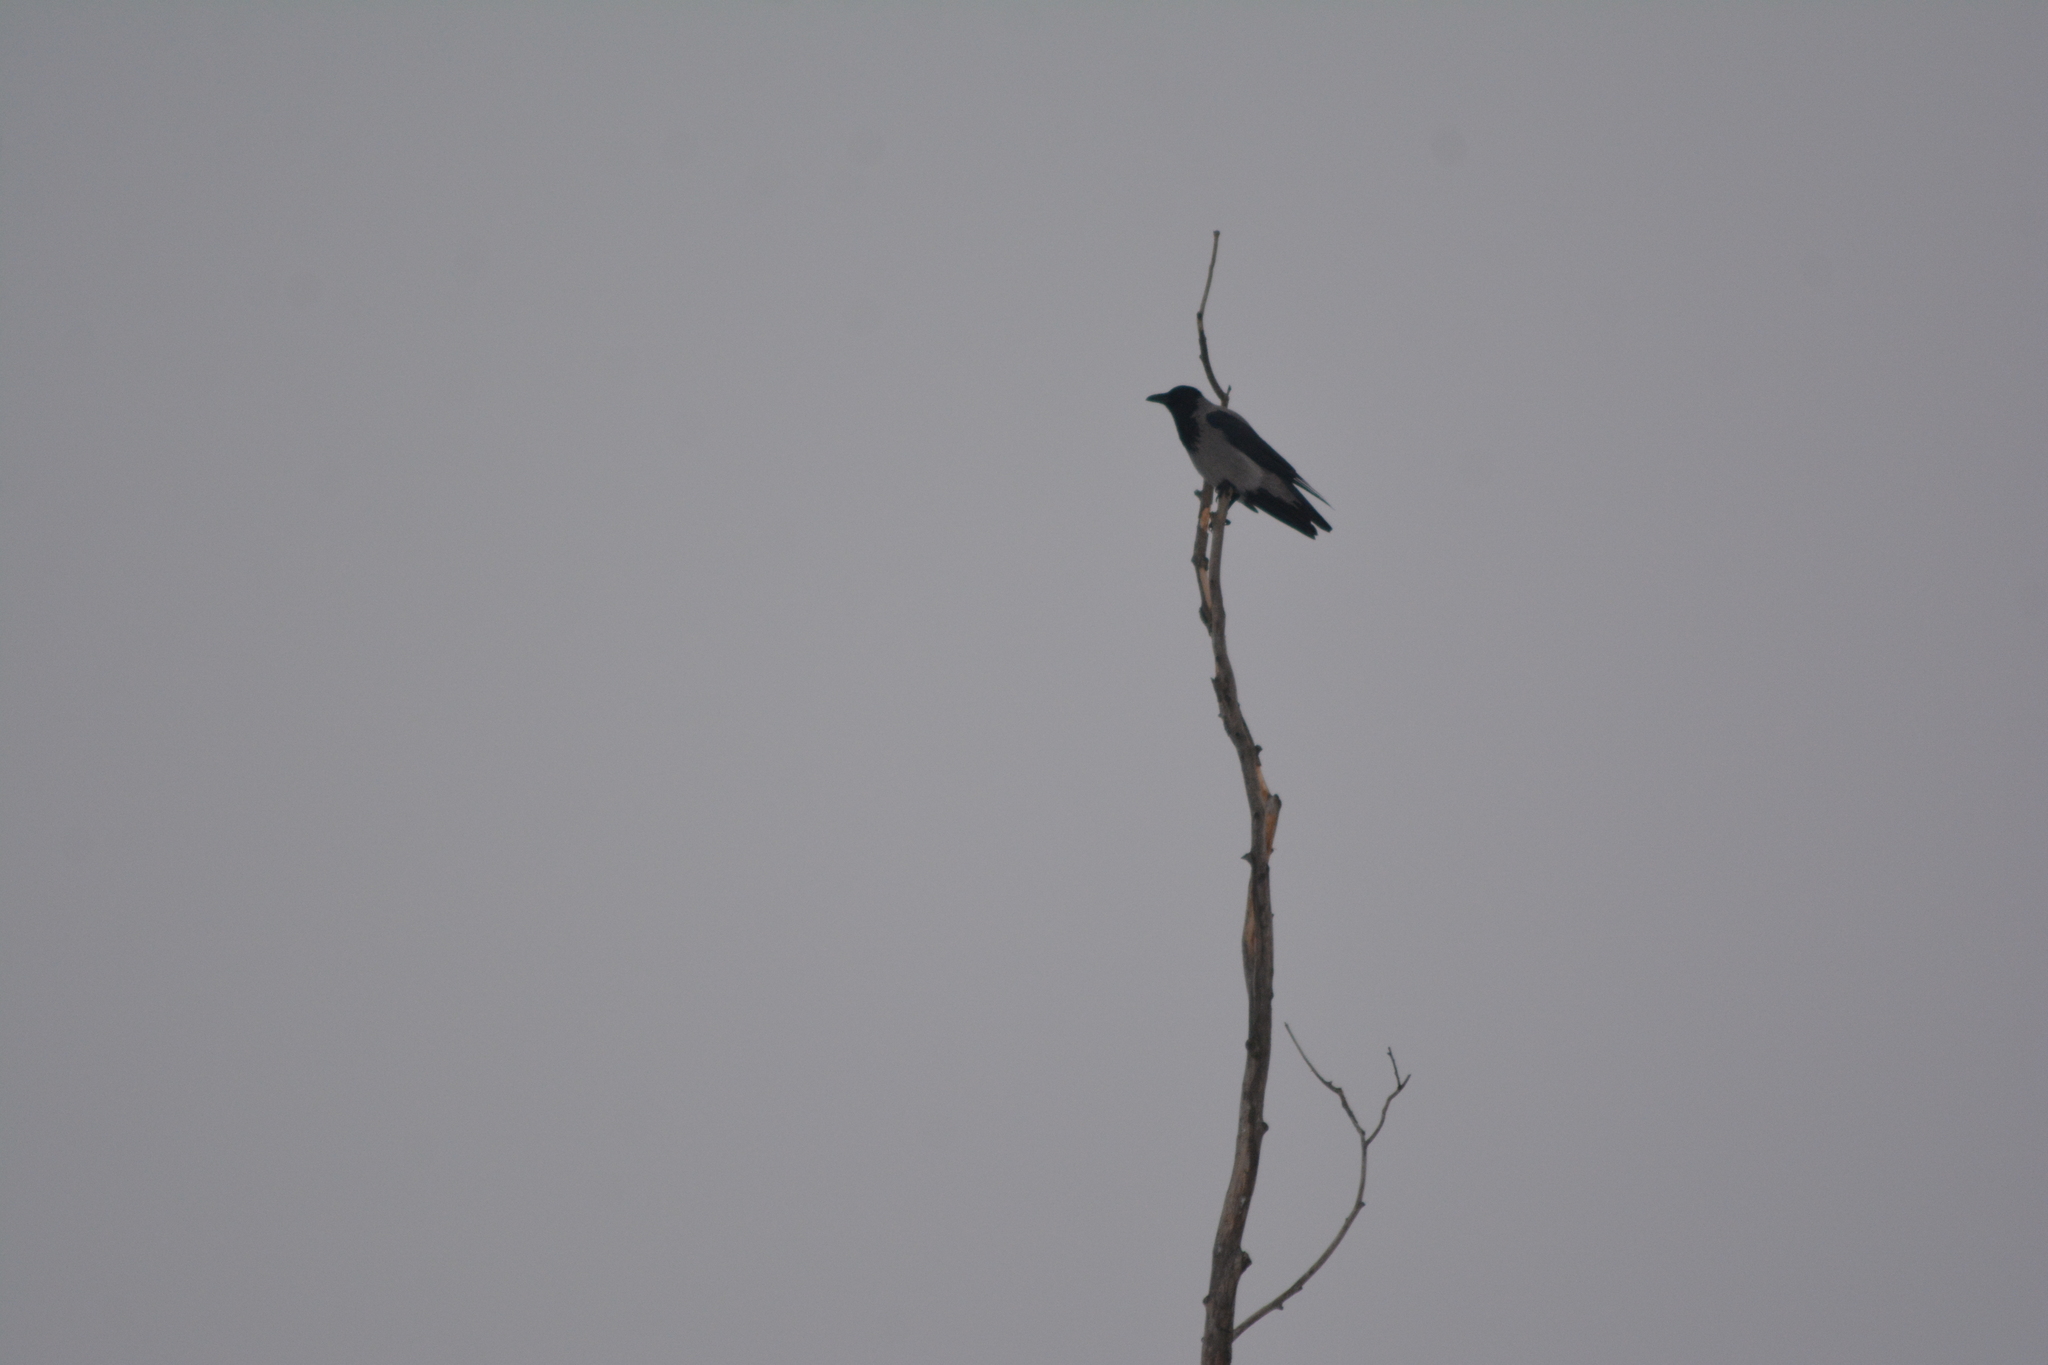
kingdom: Animalia
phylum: Chordata
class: Aves
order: Passeriformes
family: Corvidae
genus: Corvus
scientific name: Corvus cornix
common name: Hooded crow
